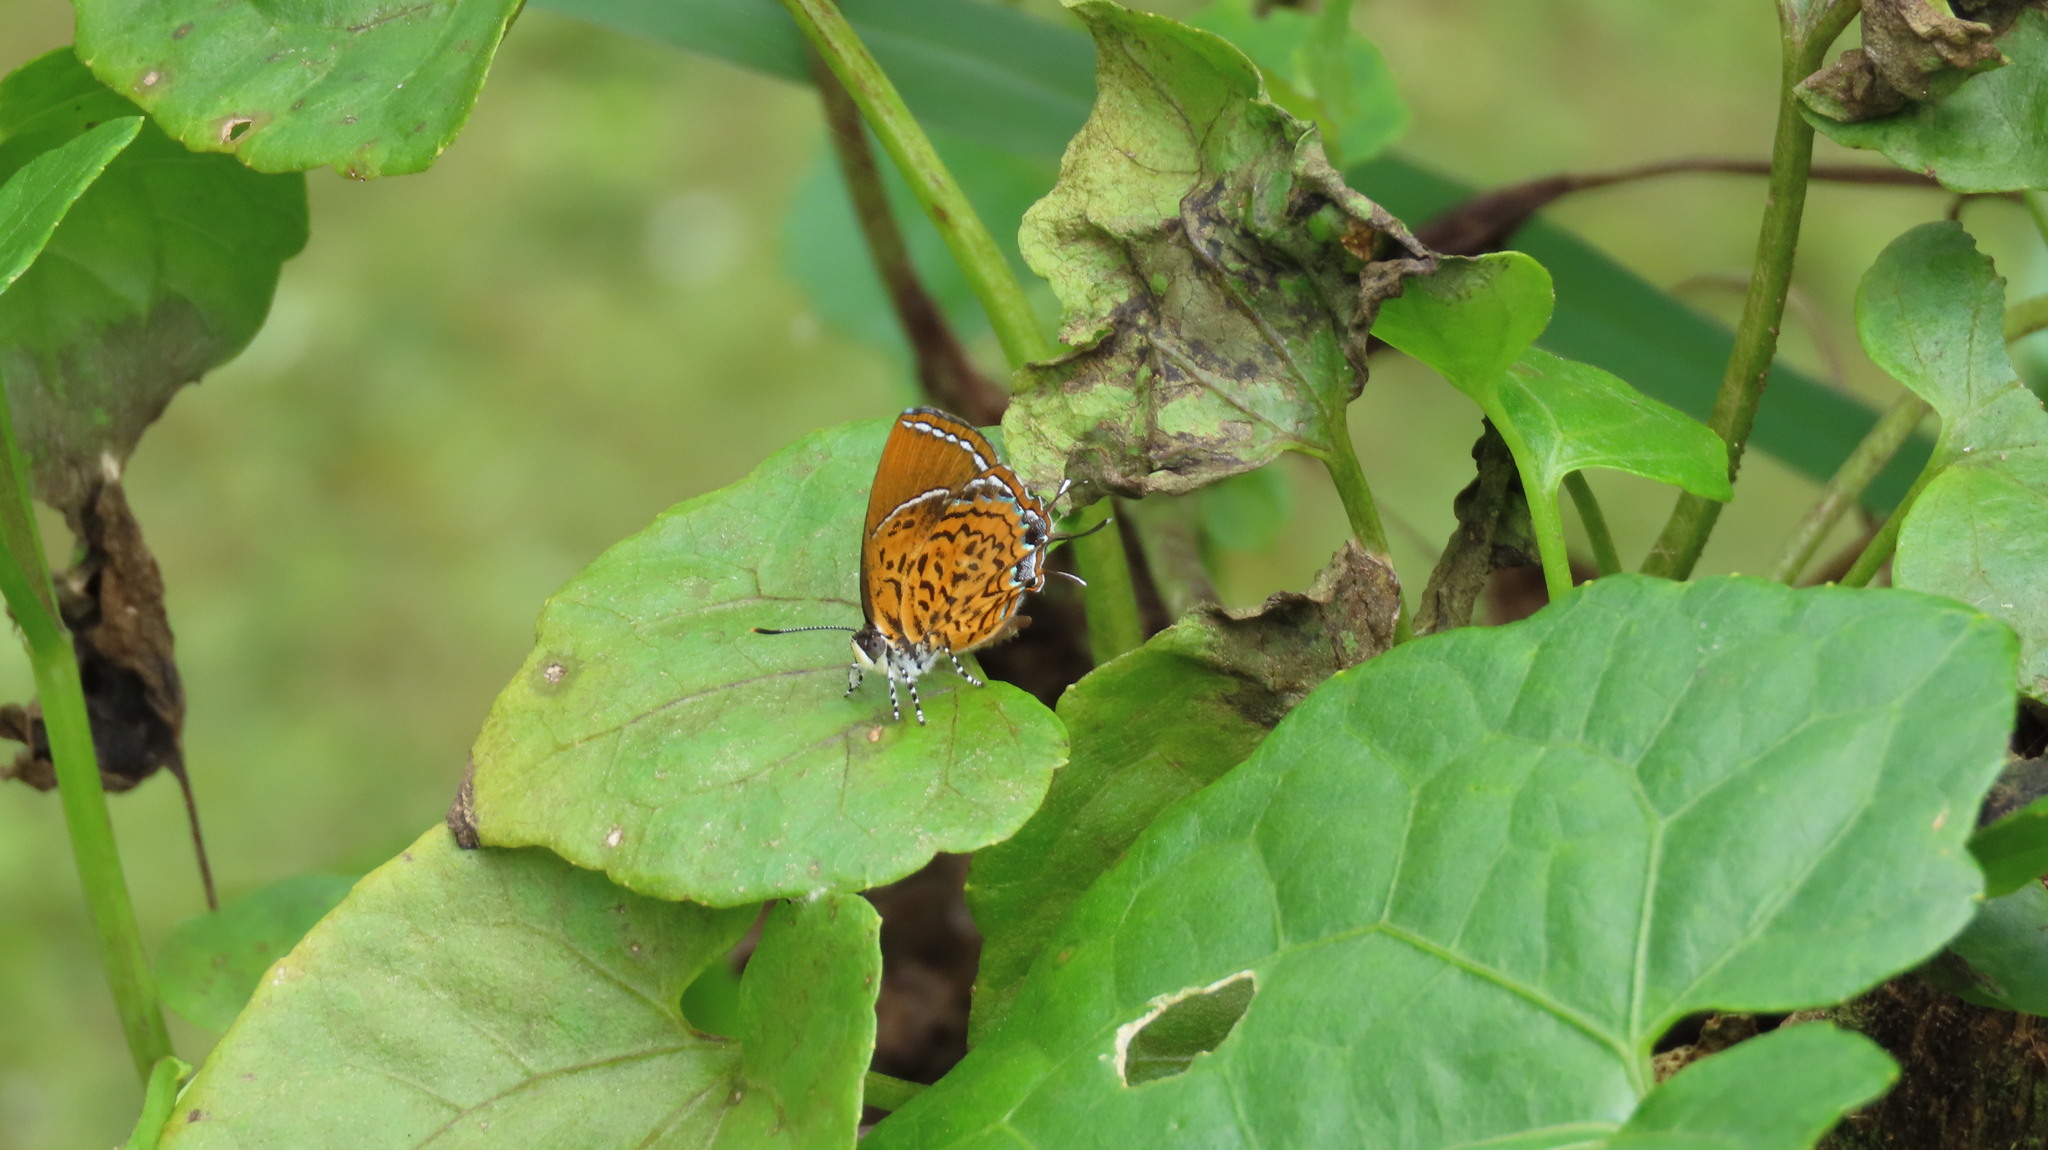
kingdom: Animalia
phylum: Arthropoda
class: Insecta
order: Lepidoptera
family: Lycaenidae
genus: Rathinda
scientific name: Rathinda amor
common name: Monkey puzzle
